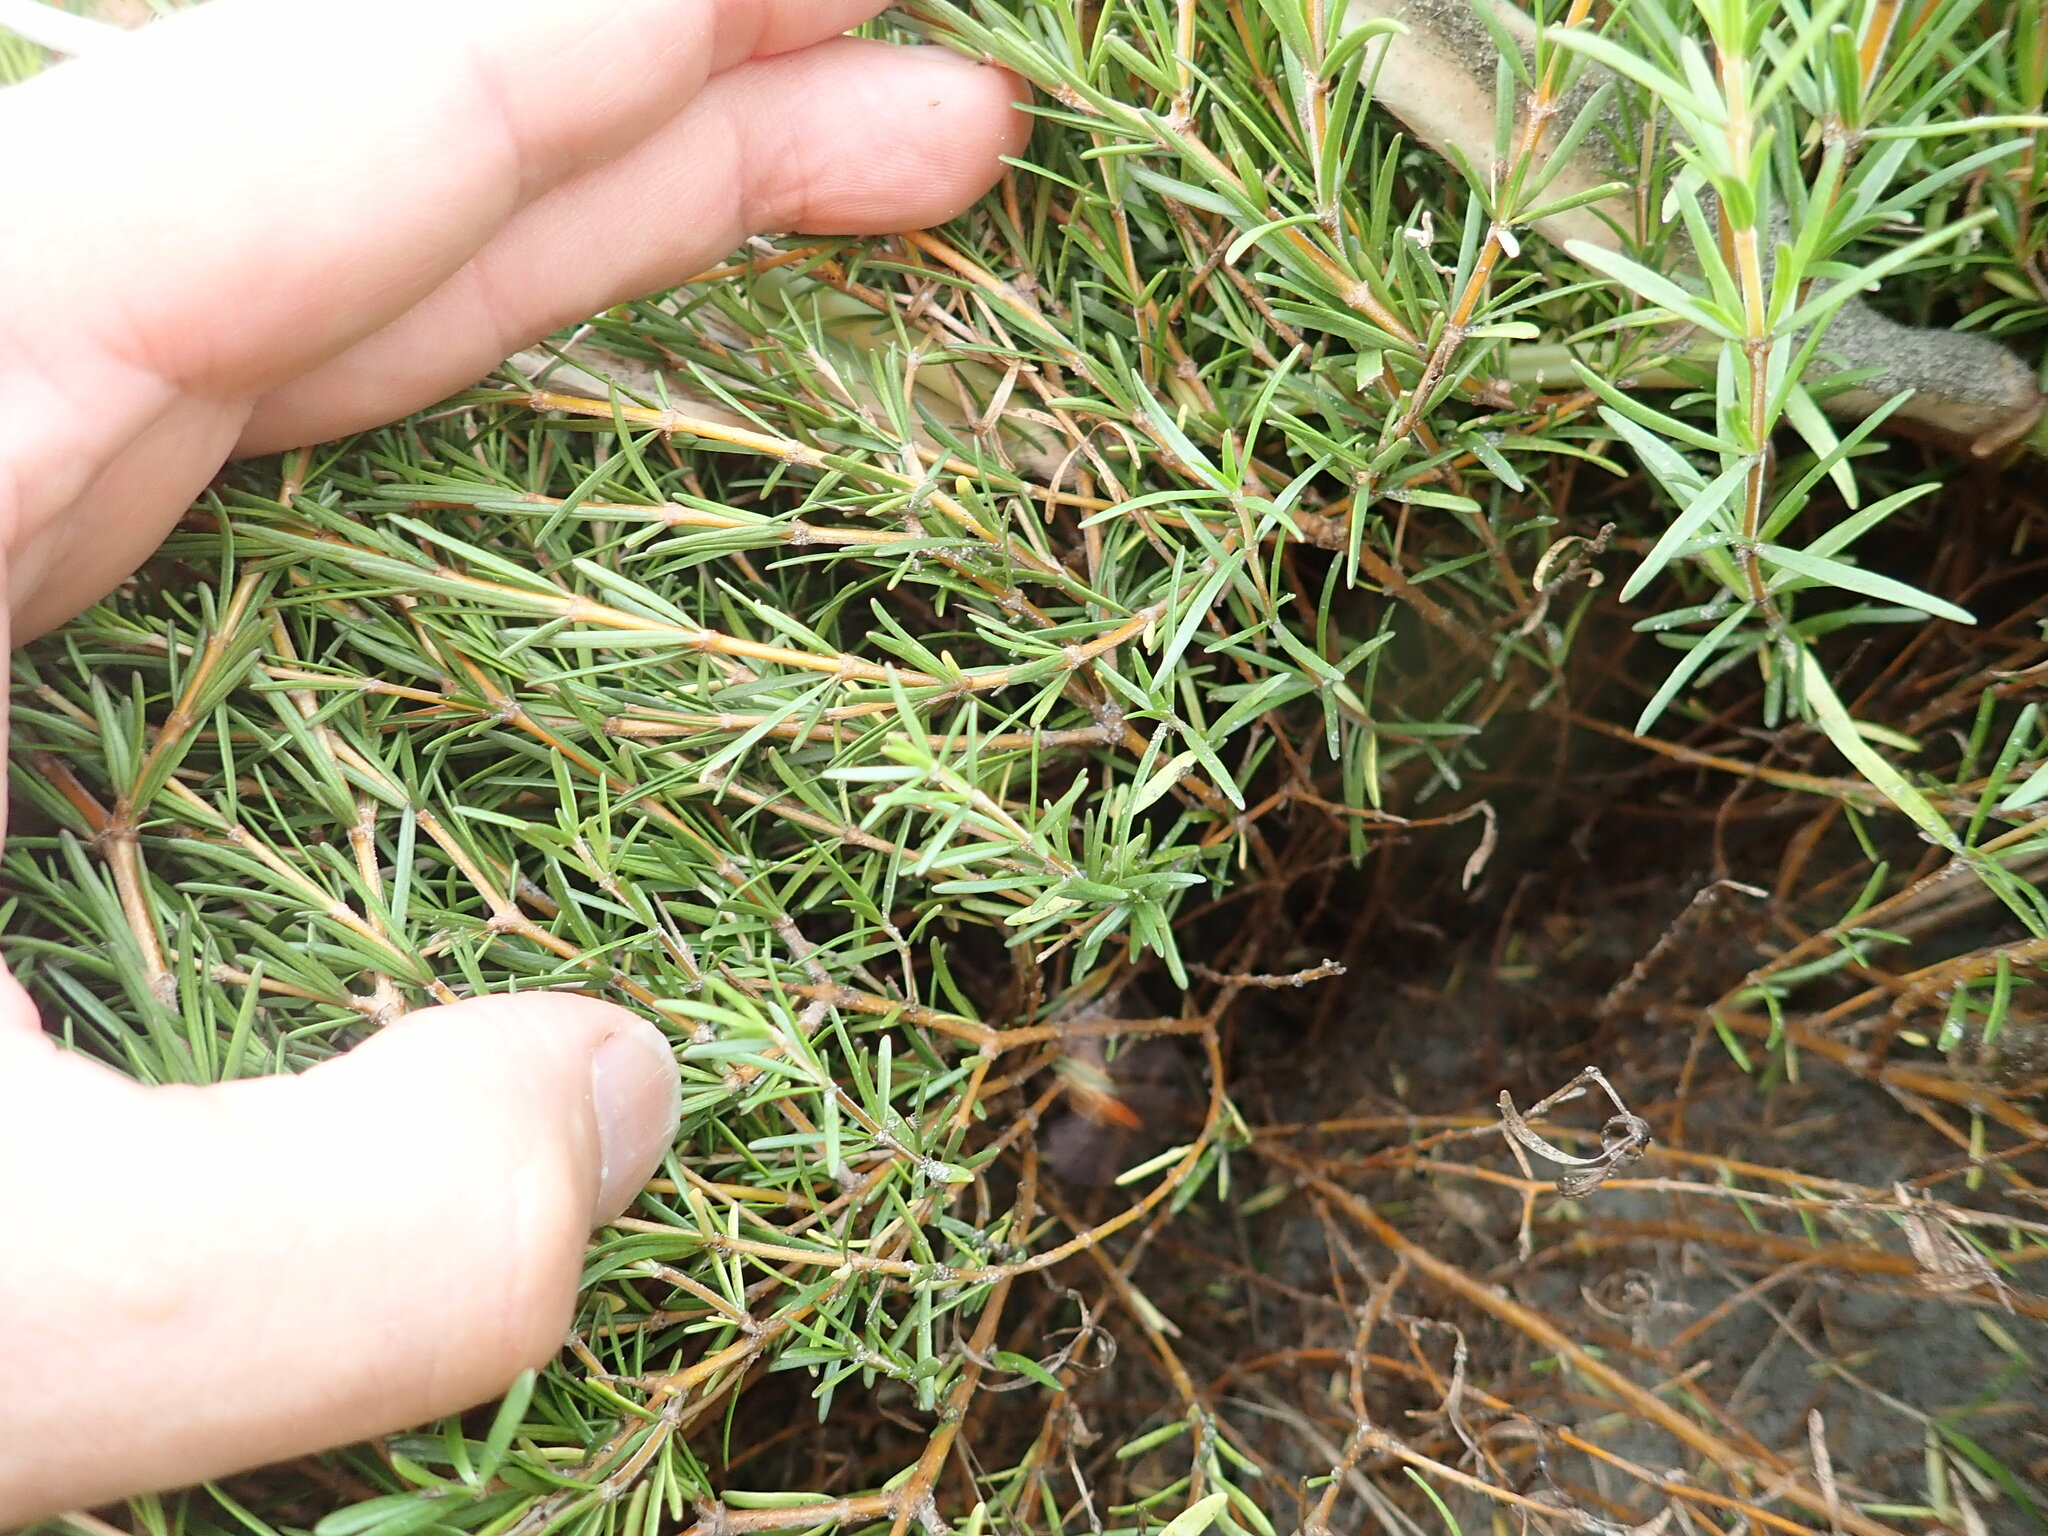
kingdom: Plantae
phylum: Tracheophyta
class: Magnoliopsida
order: Gentianales
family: Rubiaceae
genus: Coprosma
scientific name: Coprosma acerosa
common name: Sand coprosma
